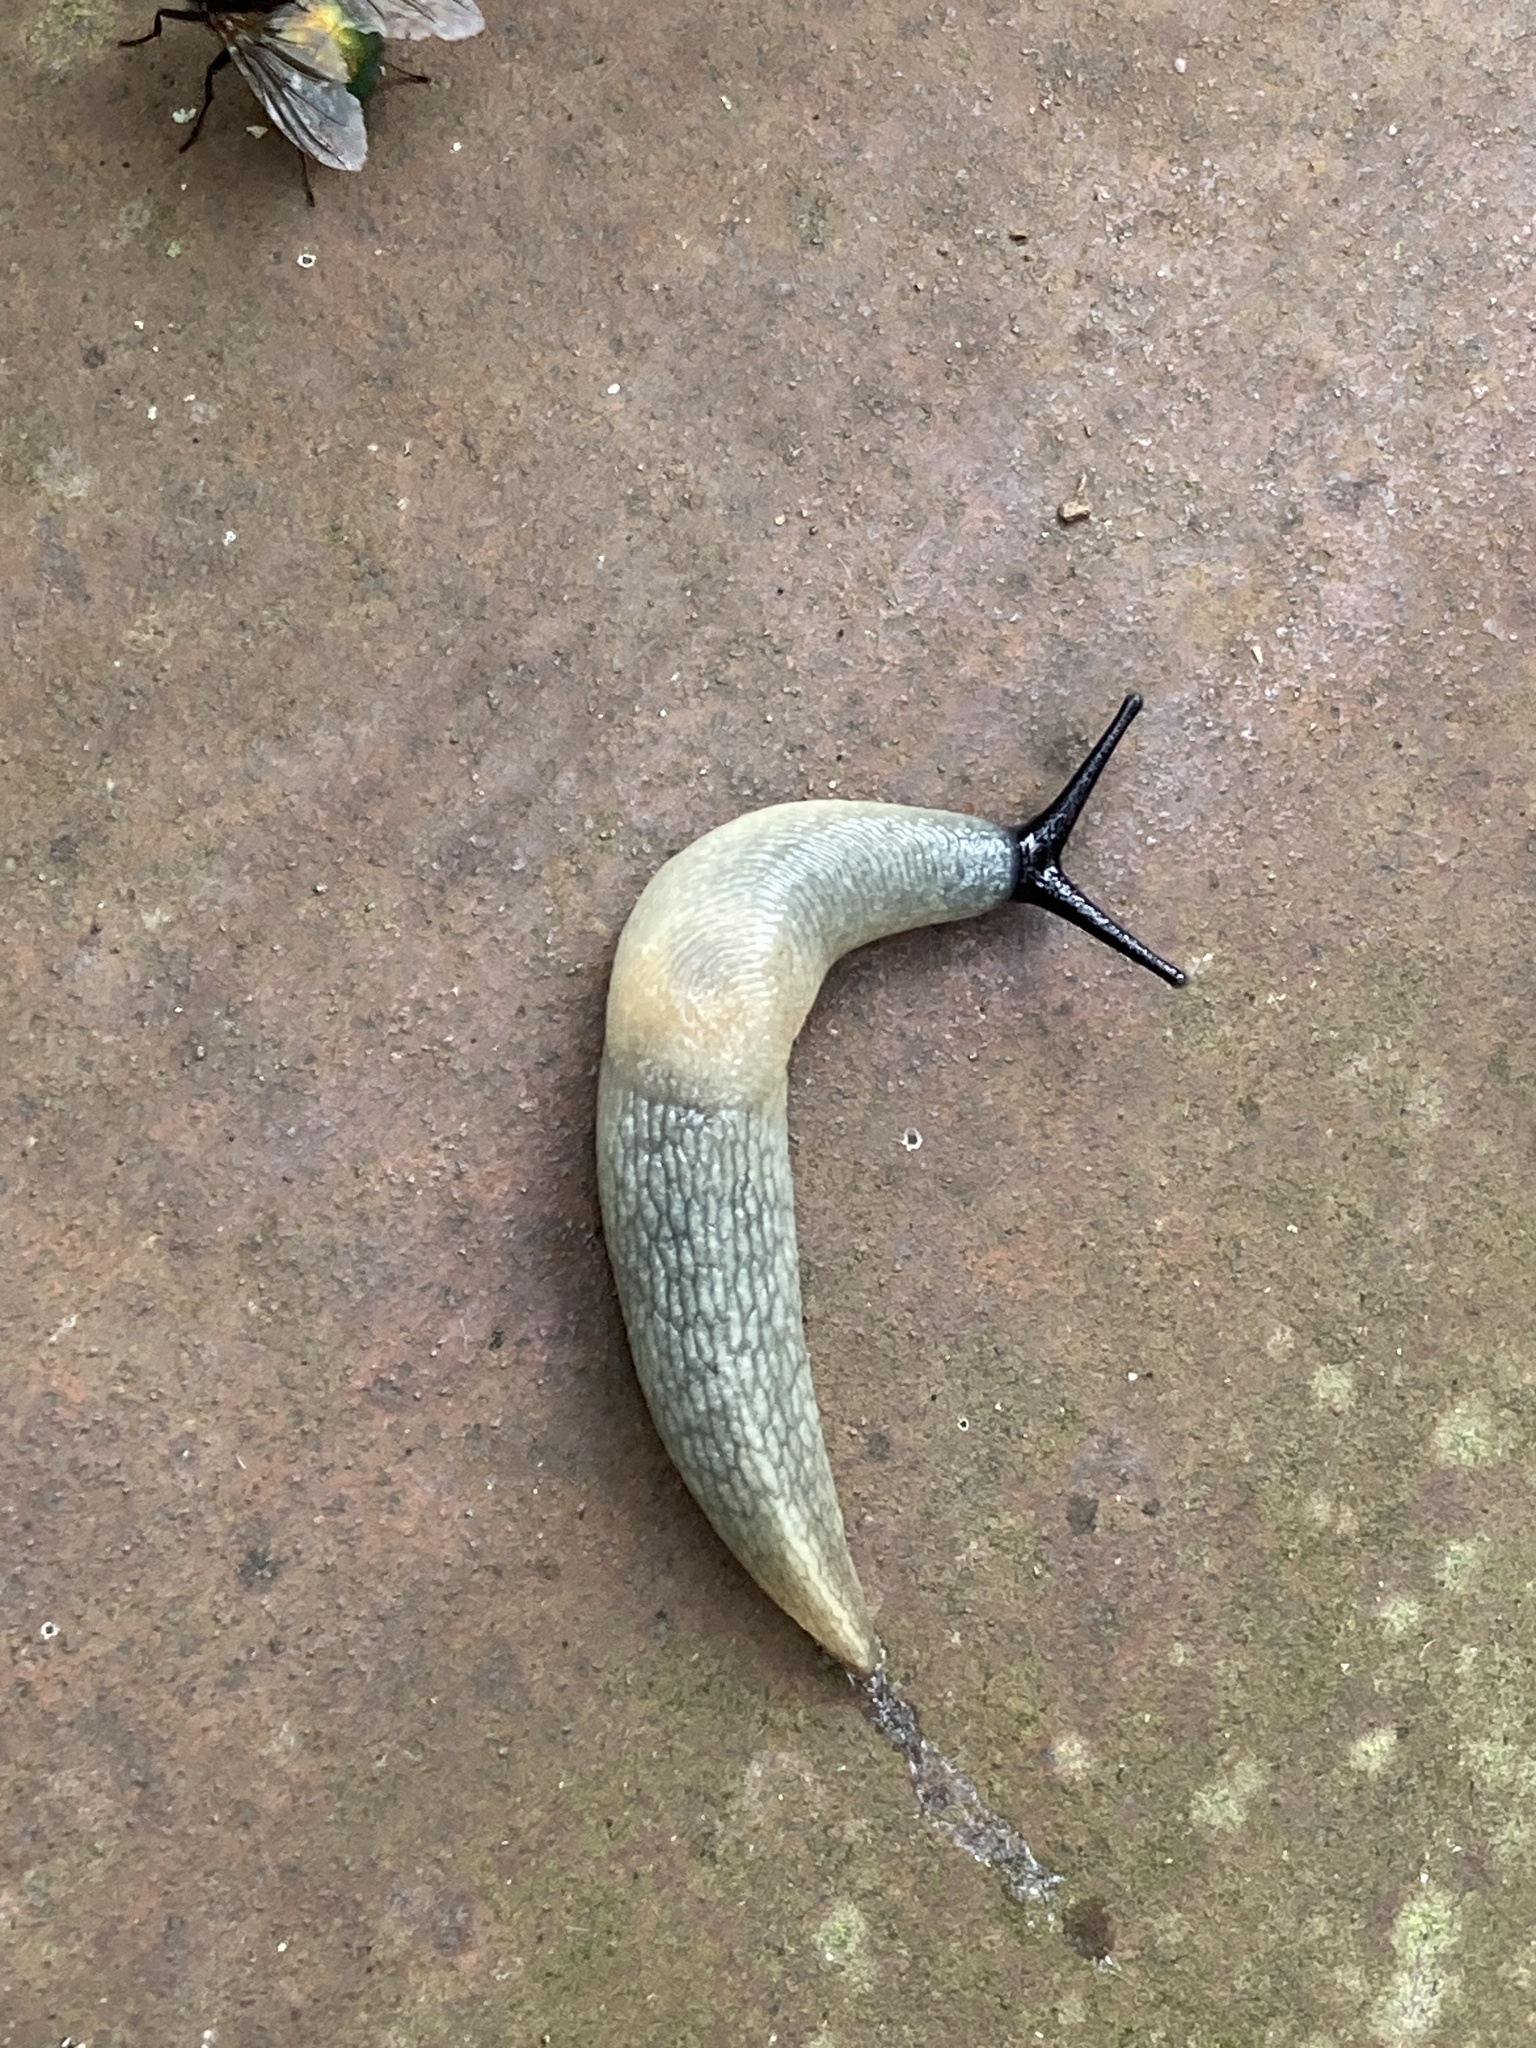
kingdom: Animalia
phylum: Mollusca
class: Gastropoda
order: Stylommatophora
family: Agriolimacidae
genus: Krynickillus
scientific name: Krynickillus melanocephalus
